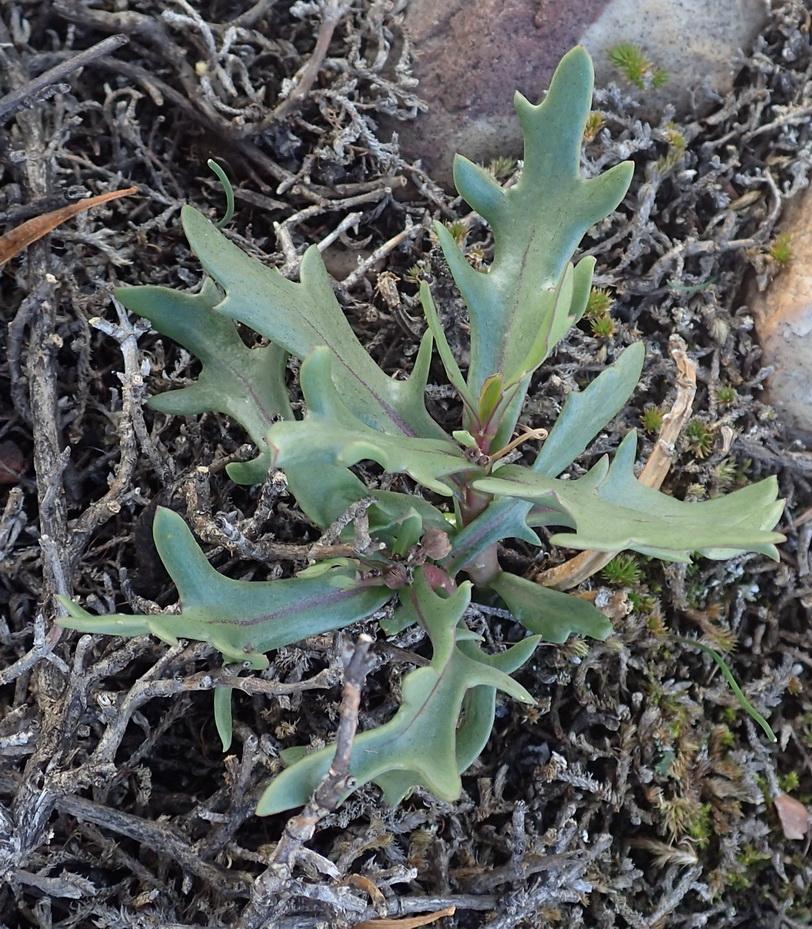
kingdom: Plantae
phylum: Tracheophyta
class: Magnoliopsida
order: Asterales
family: Asteraceae
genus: Othonna
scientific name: Othonna retrofracta
